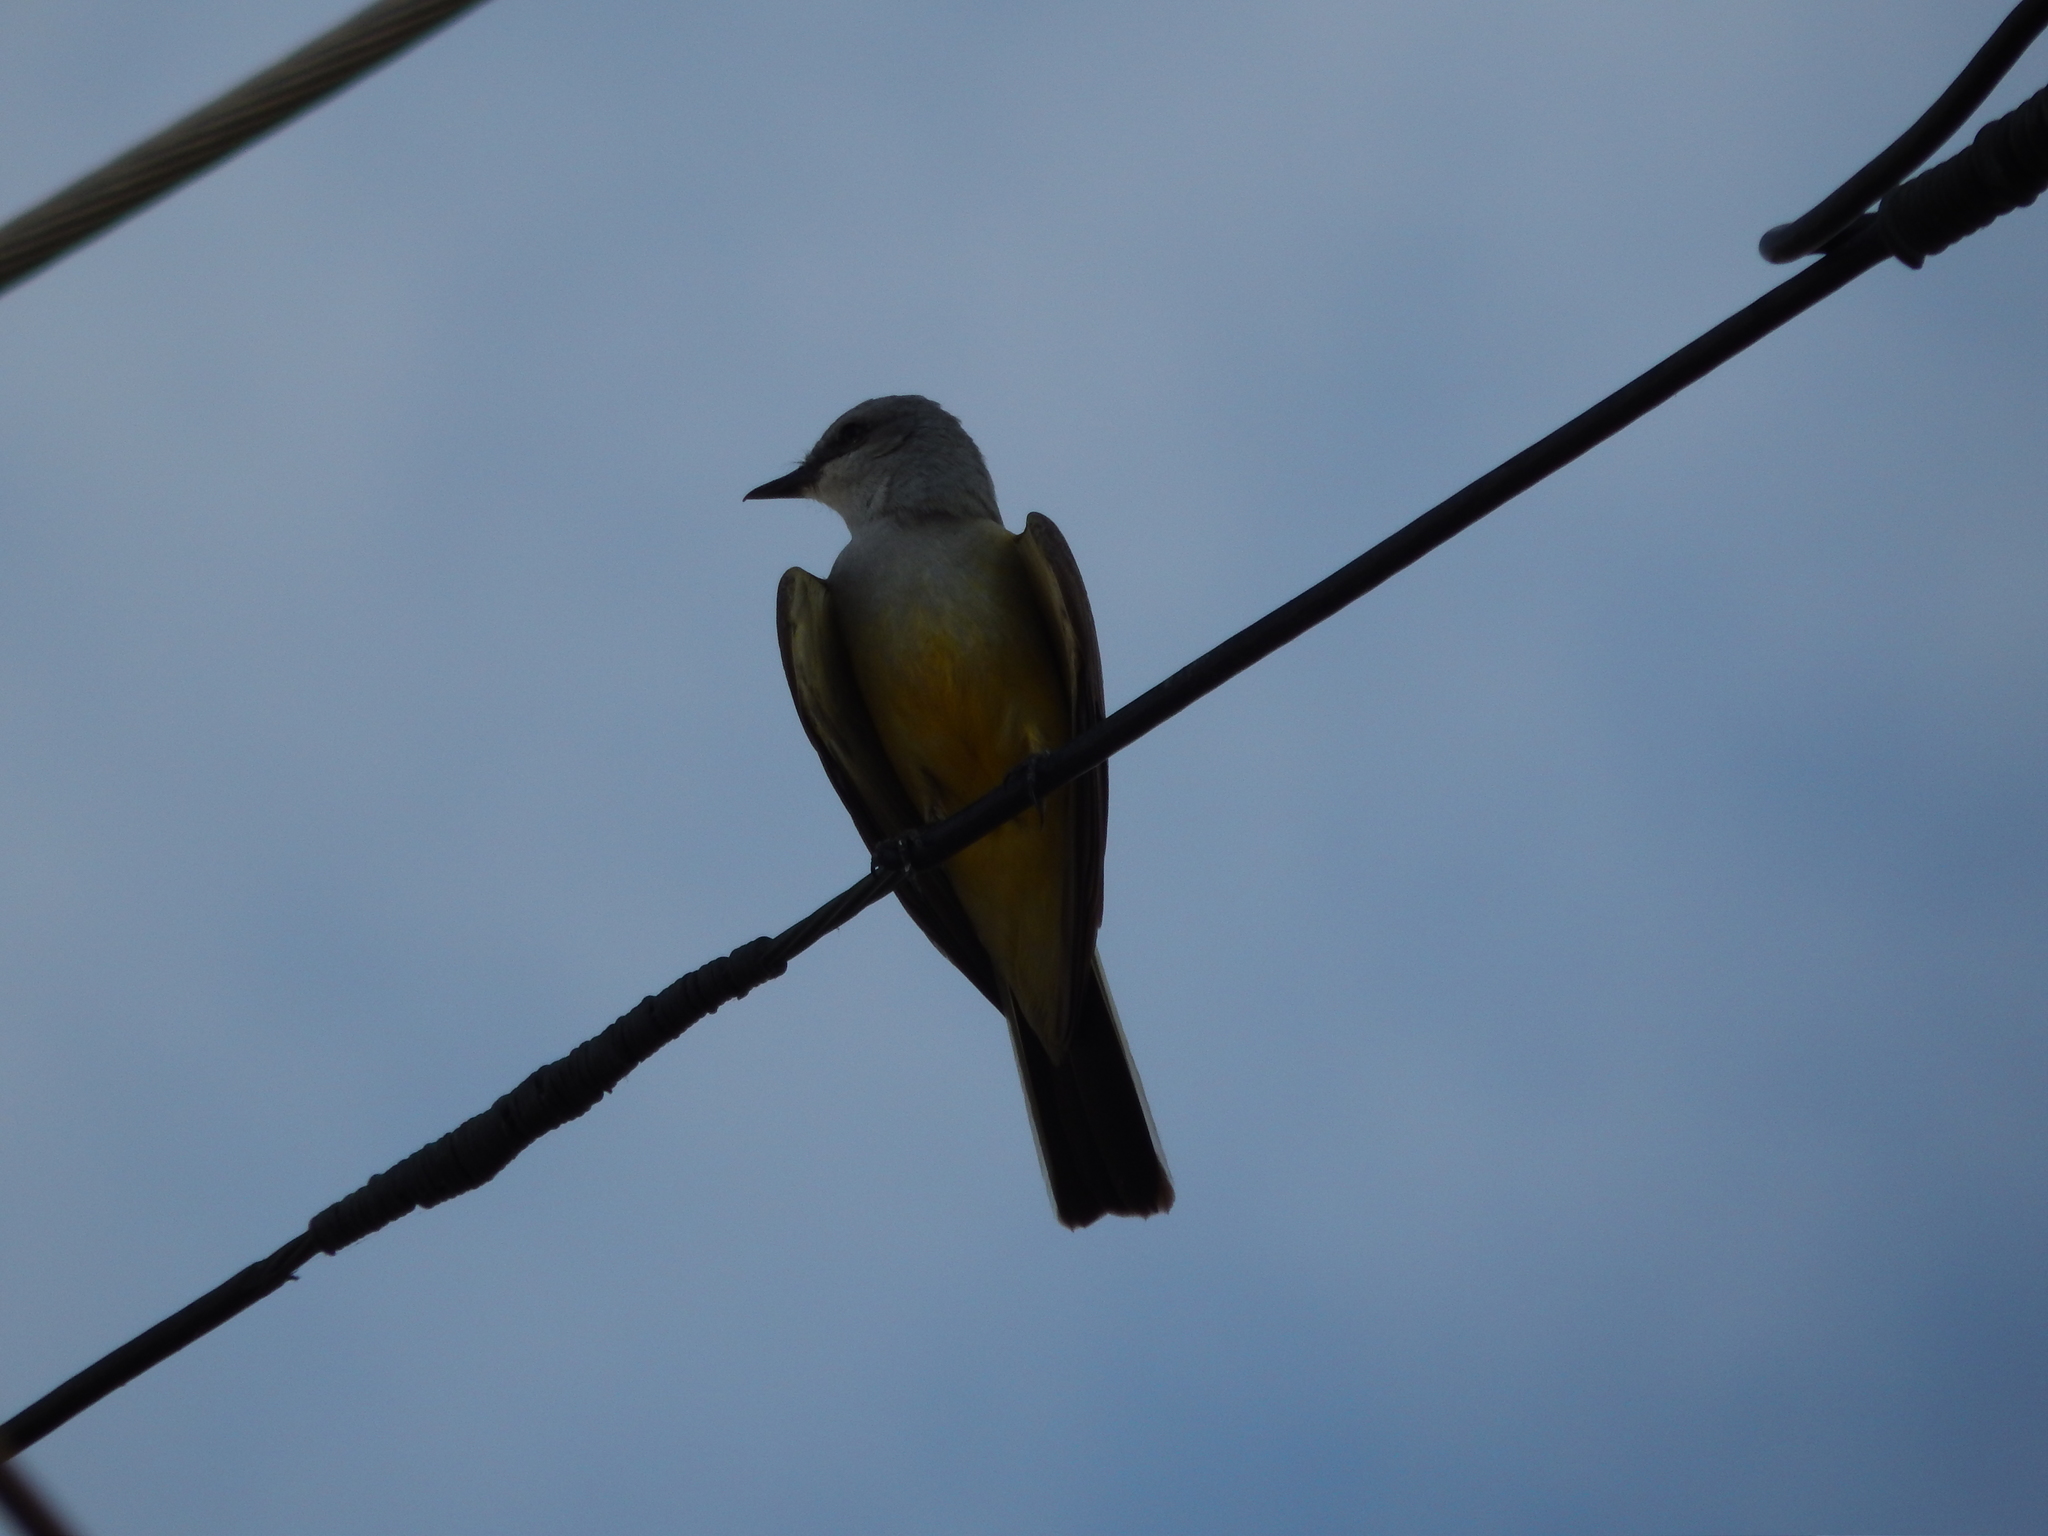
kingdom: Animalia
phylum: Chordata
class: Aves
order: Passeriformes
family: Tyrannidae
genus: Tyrannus
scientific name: Tyrannus verticalis
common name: Western kingbird
